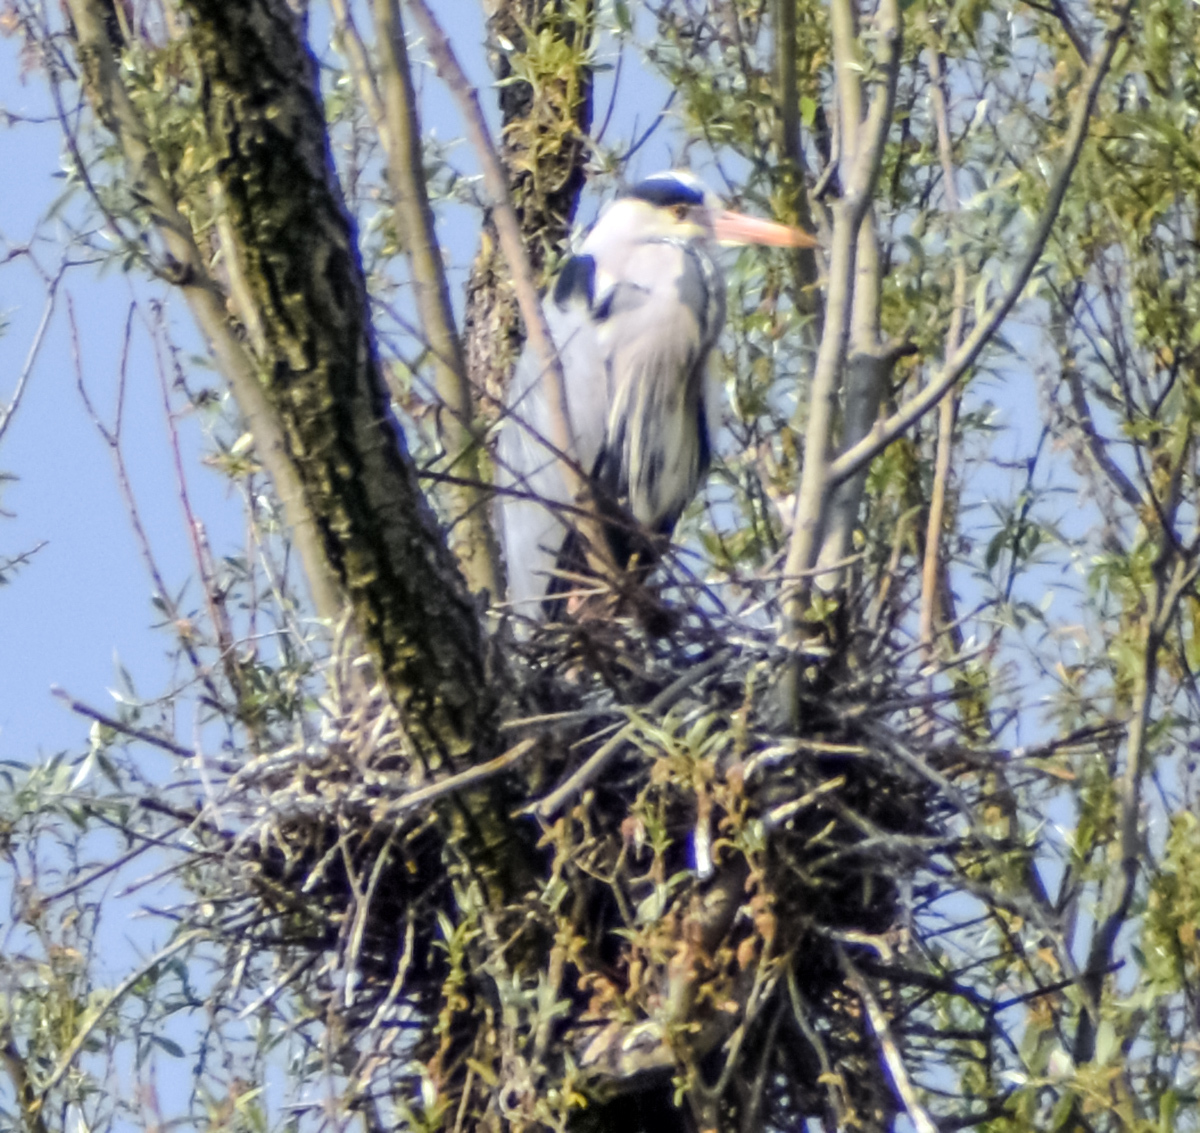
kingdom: Animalia
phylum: Chordata
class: Aves
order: Pelecaniformes
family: Ardeidae
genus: Ardea
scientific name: Ardea cinerea
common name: Grey heron
